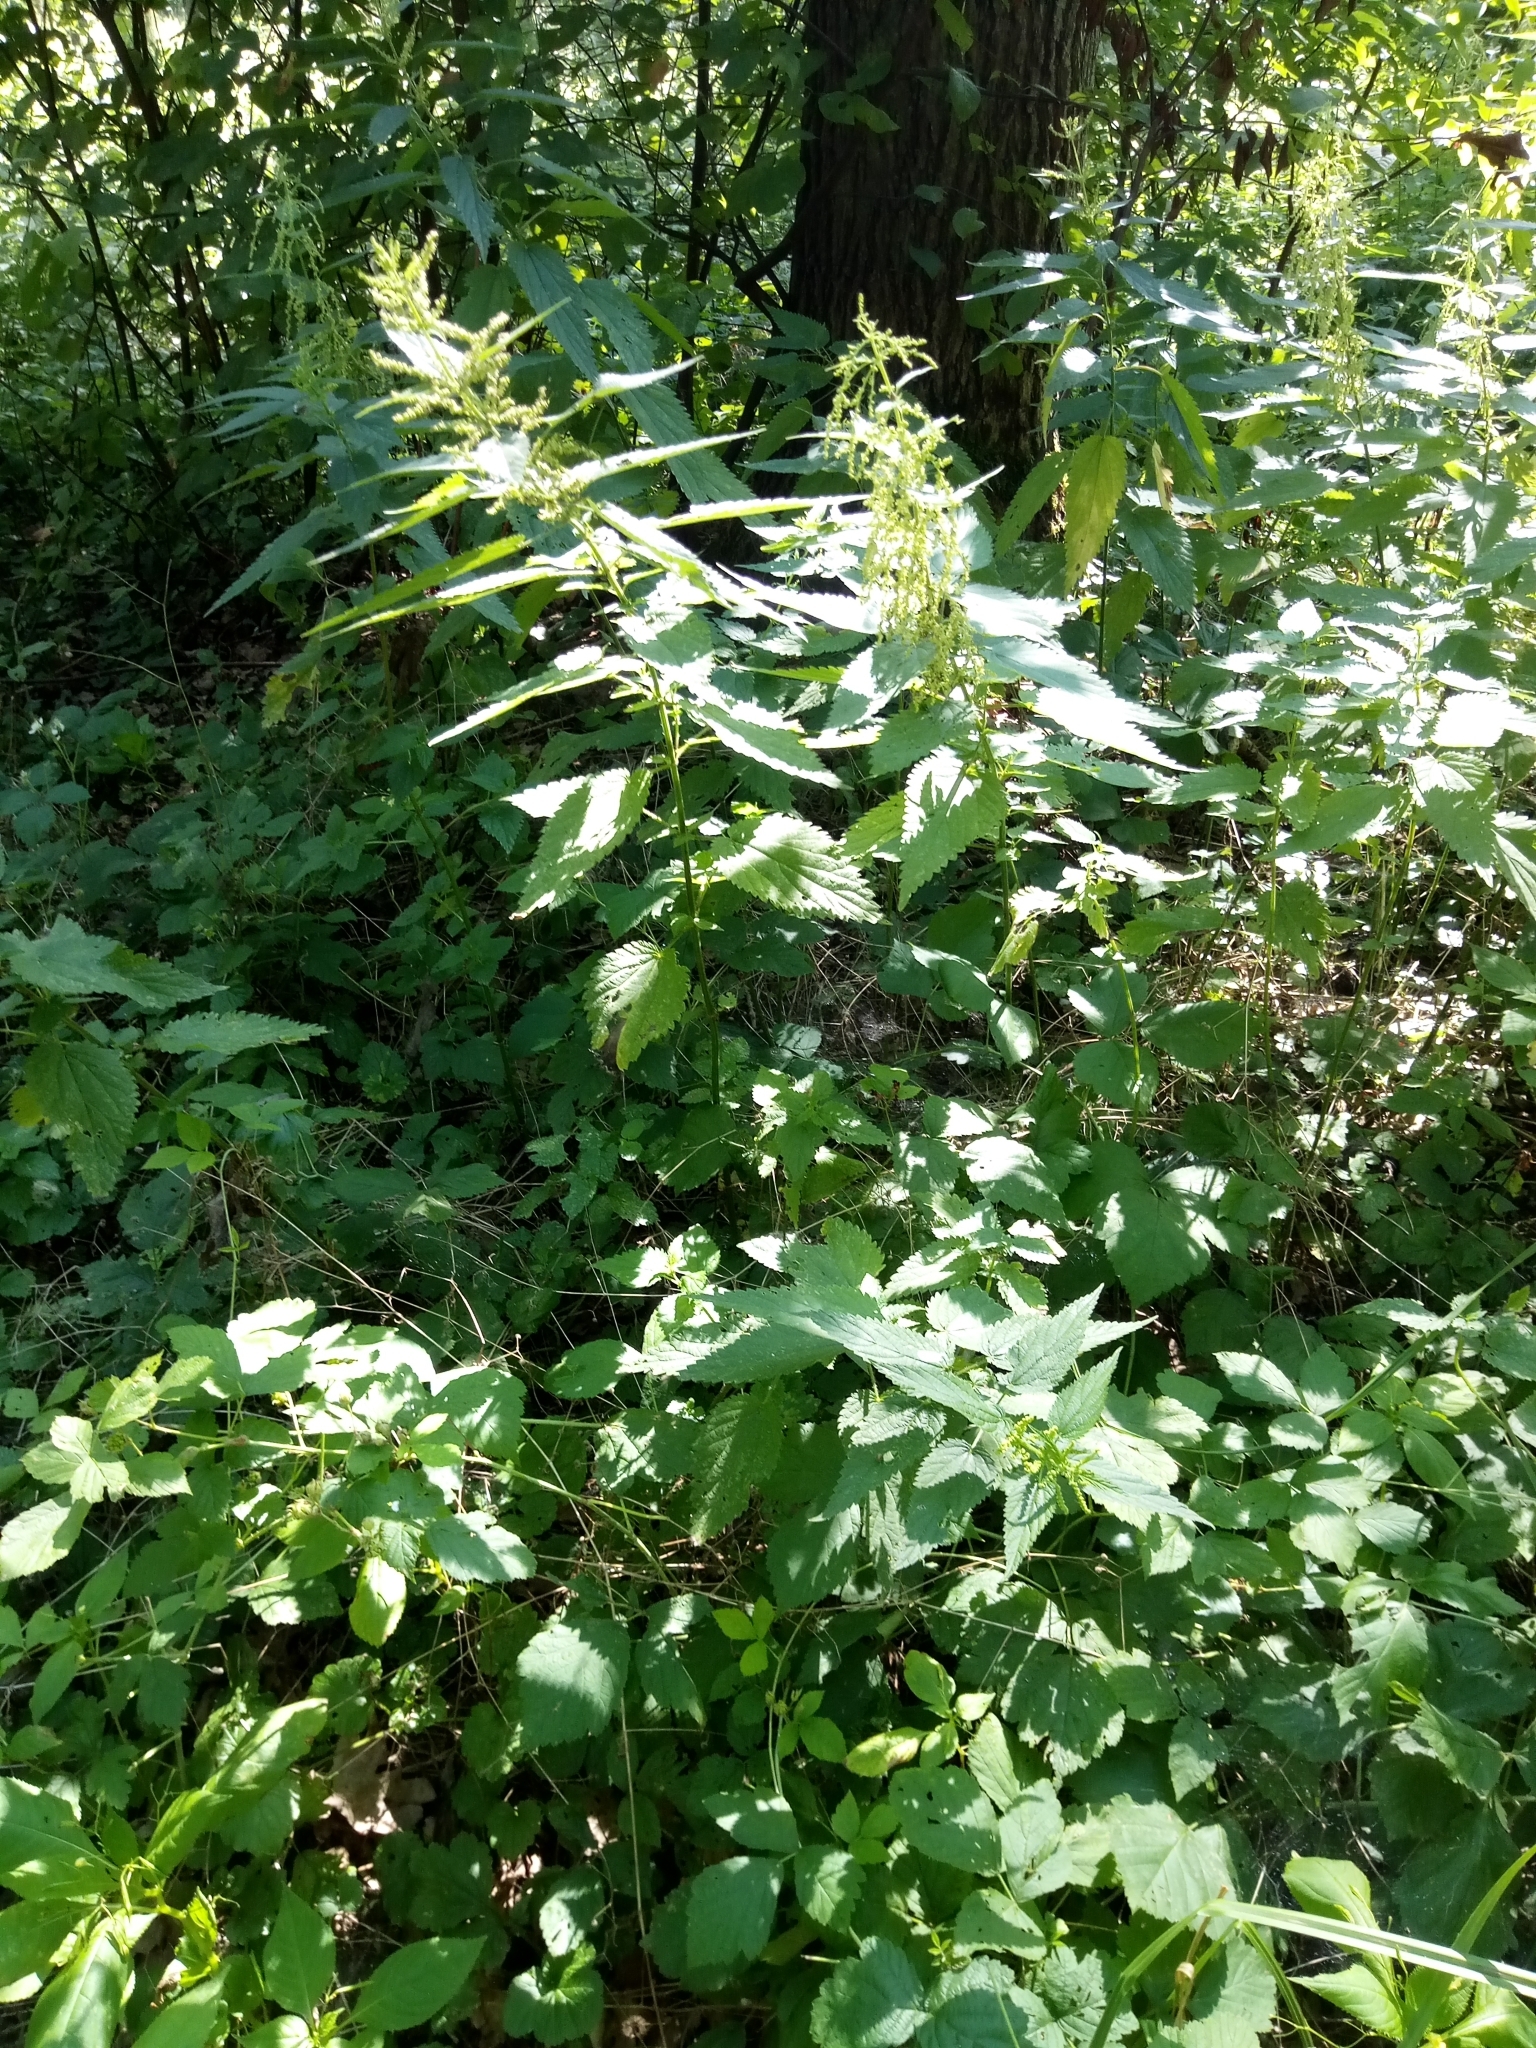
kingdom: Plantae
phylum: Tracheophyta
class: Magnoliopsida
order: Rosales
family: Urticaceae
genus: Urtica
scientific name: Urtica dioica
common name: Common nettle
